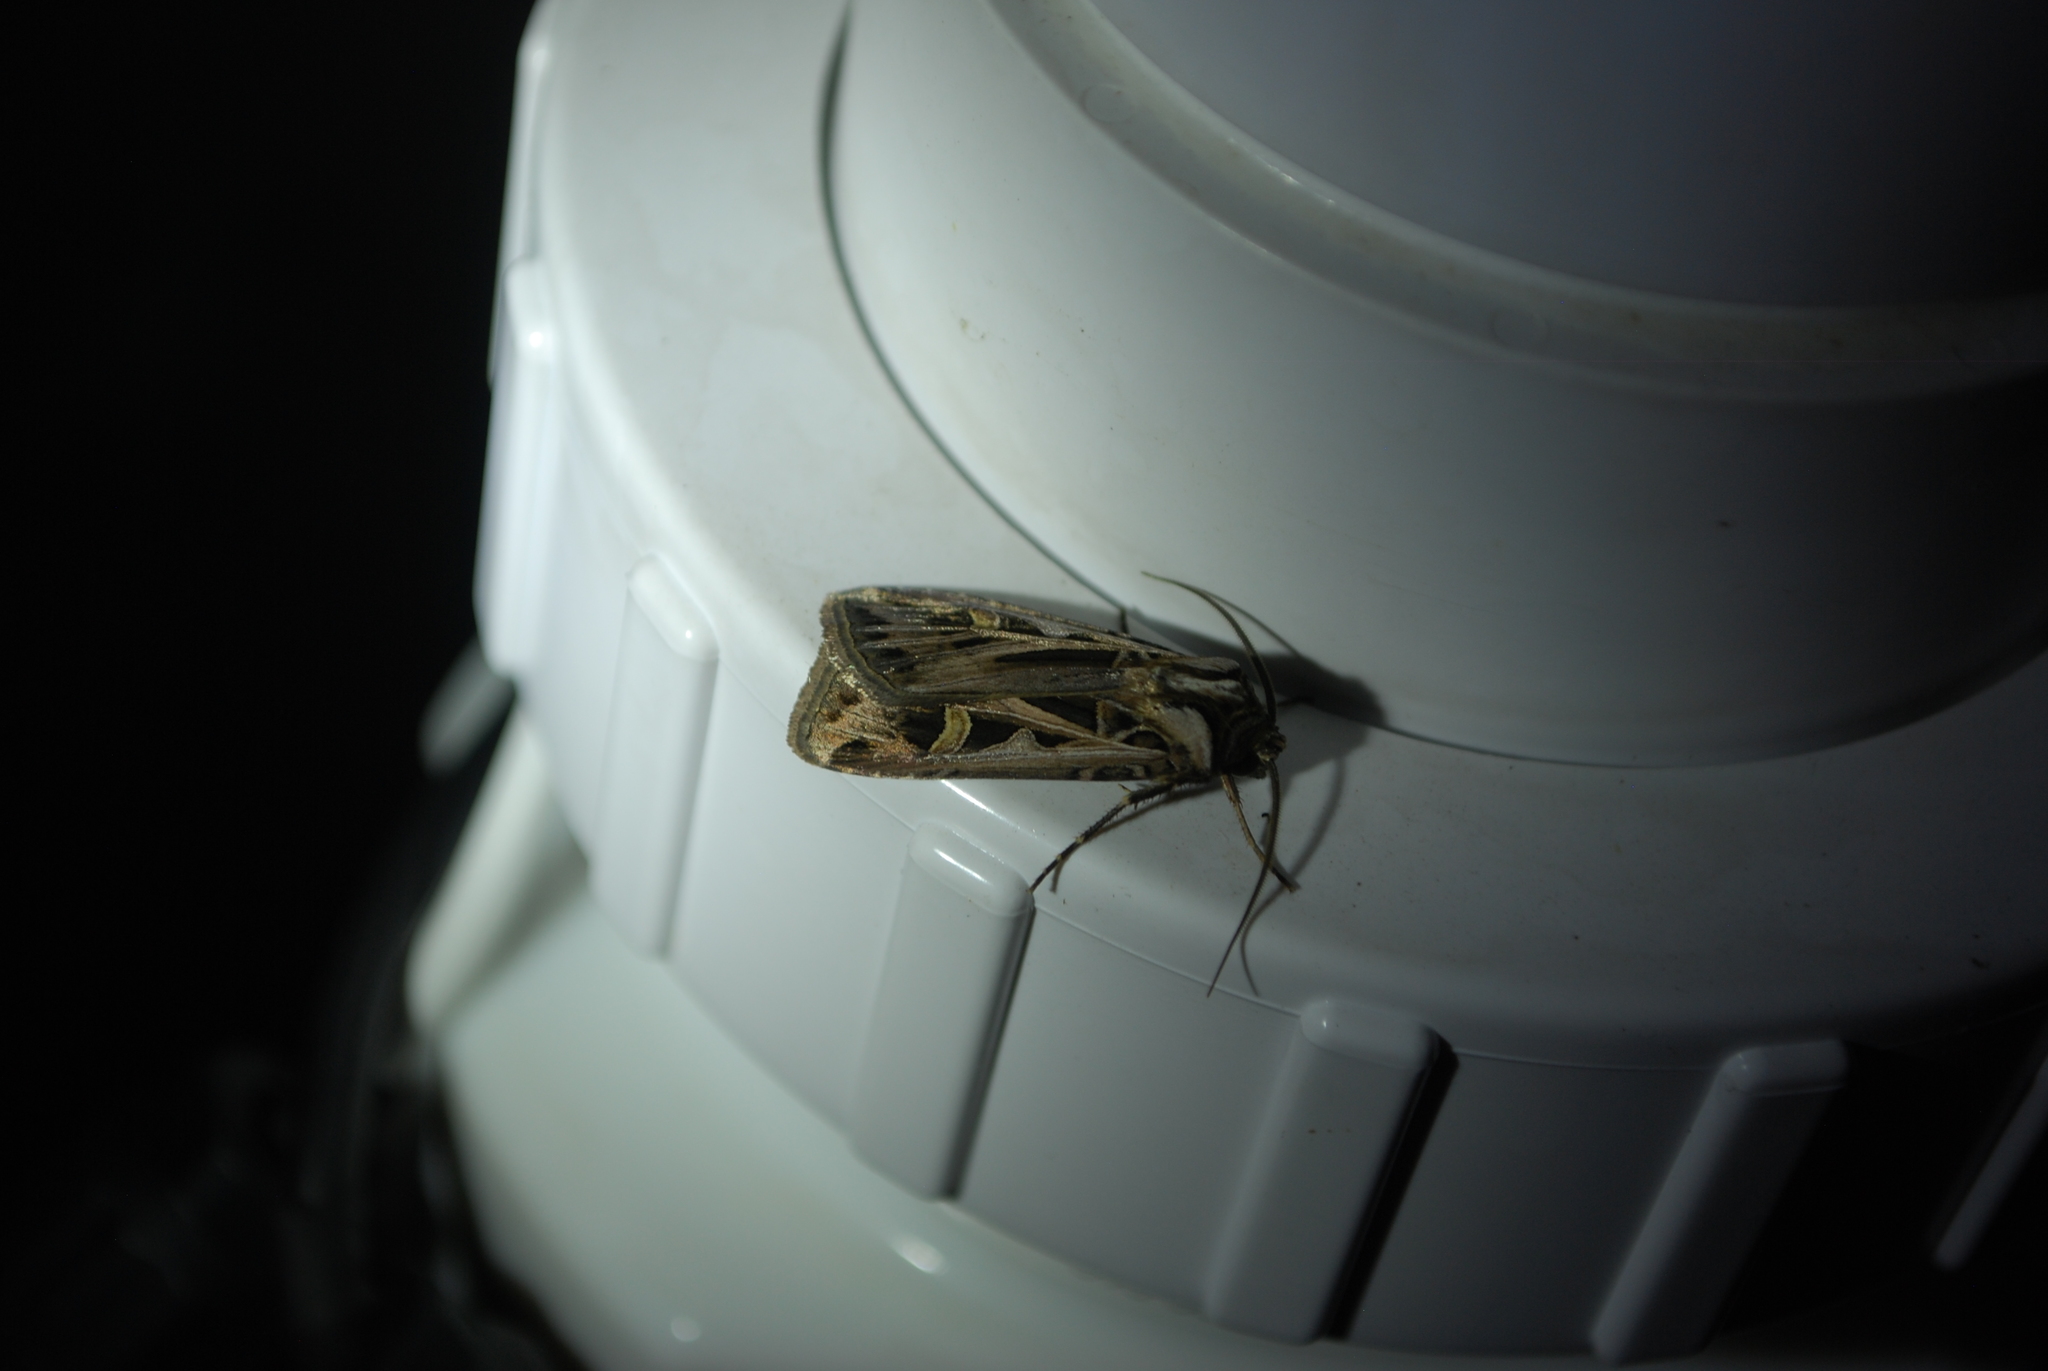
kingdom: Animalia
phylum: Arthropoda
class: Insecta
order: Lepidoptera
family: Noctuidae
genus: Feltia
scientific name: Feltia jaculifera
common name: Dingy cutworm moth
